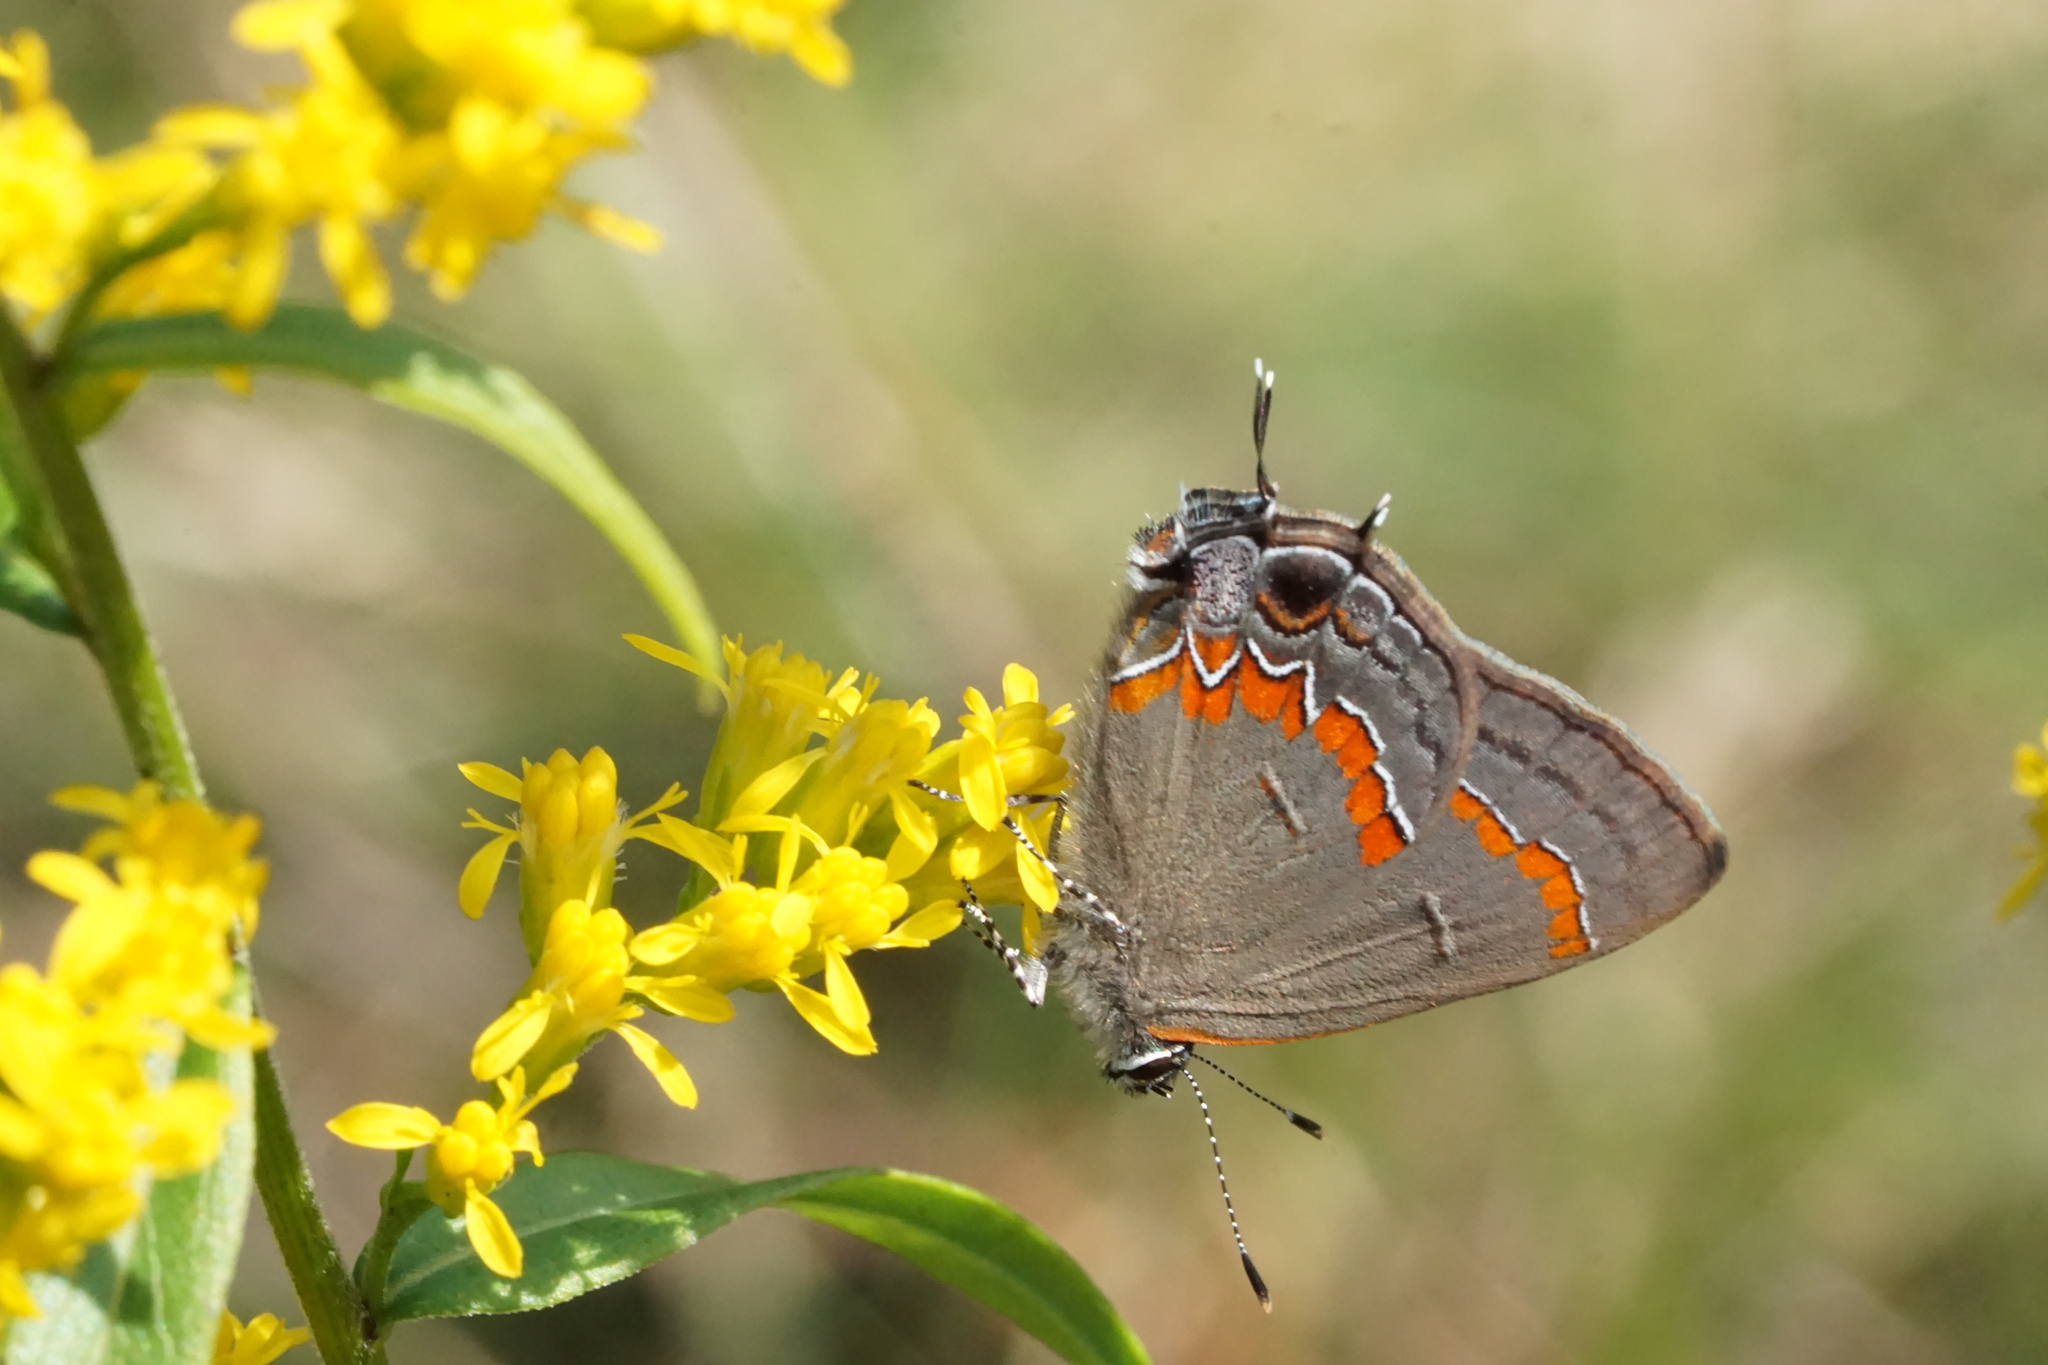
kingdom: Animalia
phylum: Arthropoda
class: Insecta
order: Lepidoptera
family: Lycaenidae
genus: Calycopis
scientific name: Calycopis cecrops
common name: Red-banded hairstreak
